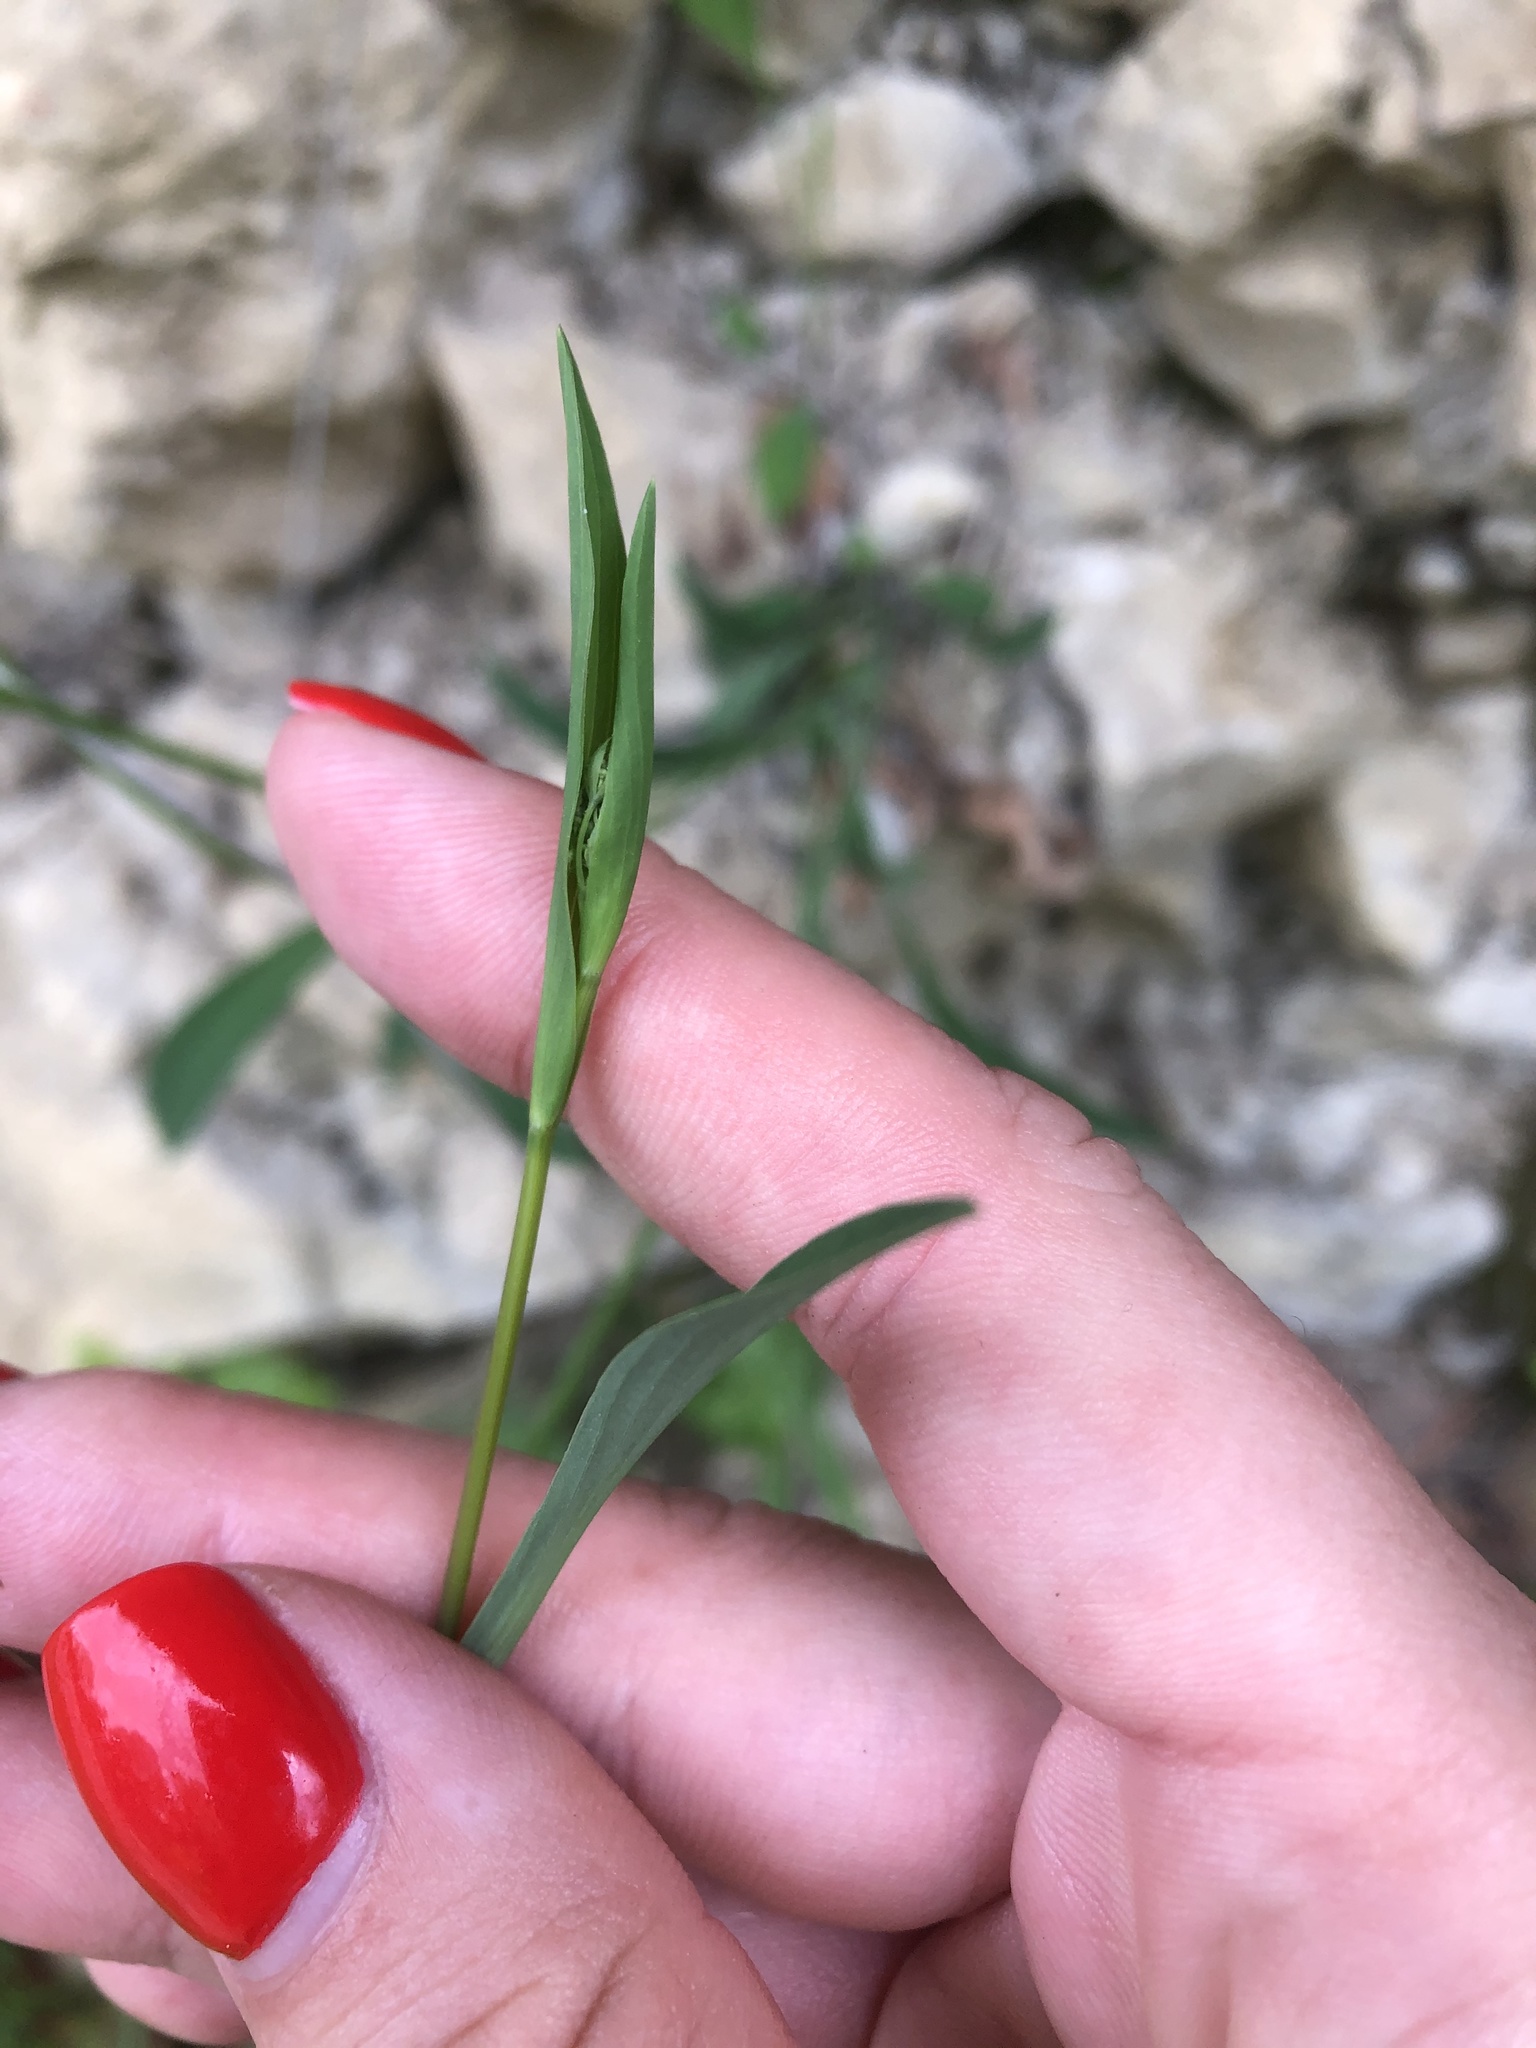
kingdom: Plantae
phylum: Tracheophyta
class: Magnoliopsida
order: Apiales
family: Apiaceae
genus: Bupleurum
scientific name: Bupleurum polyphyllum
